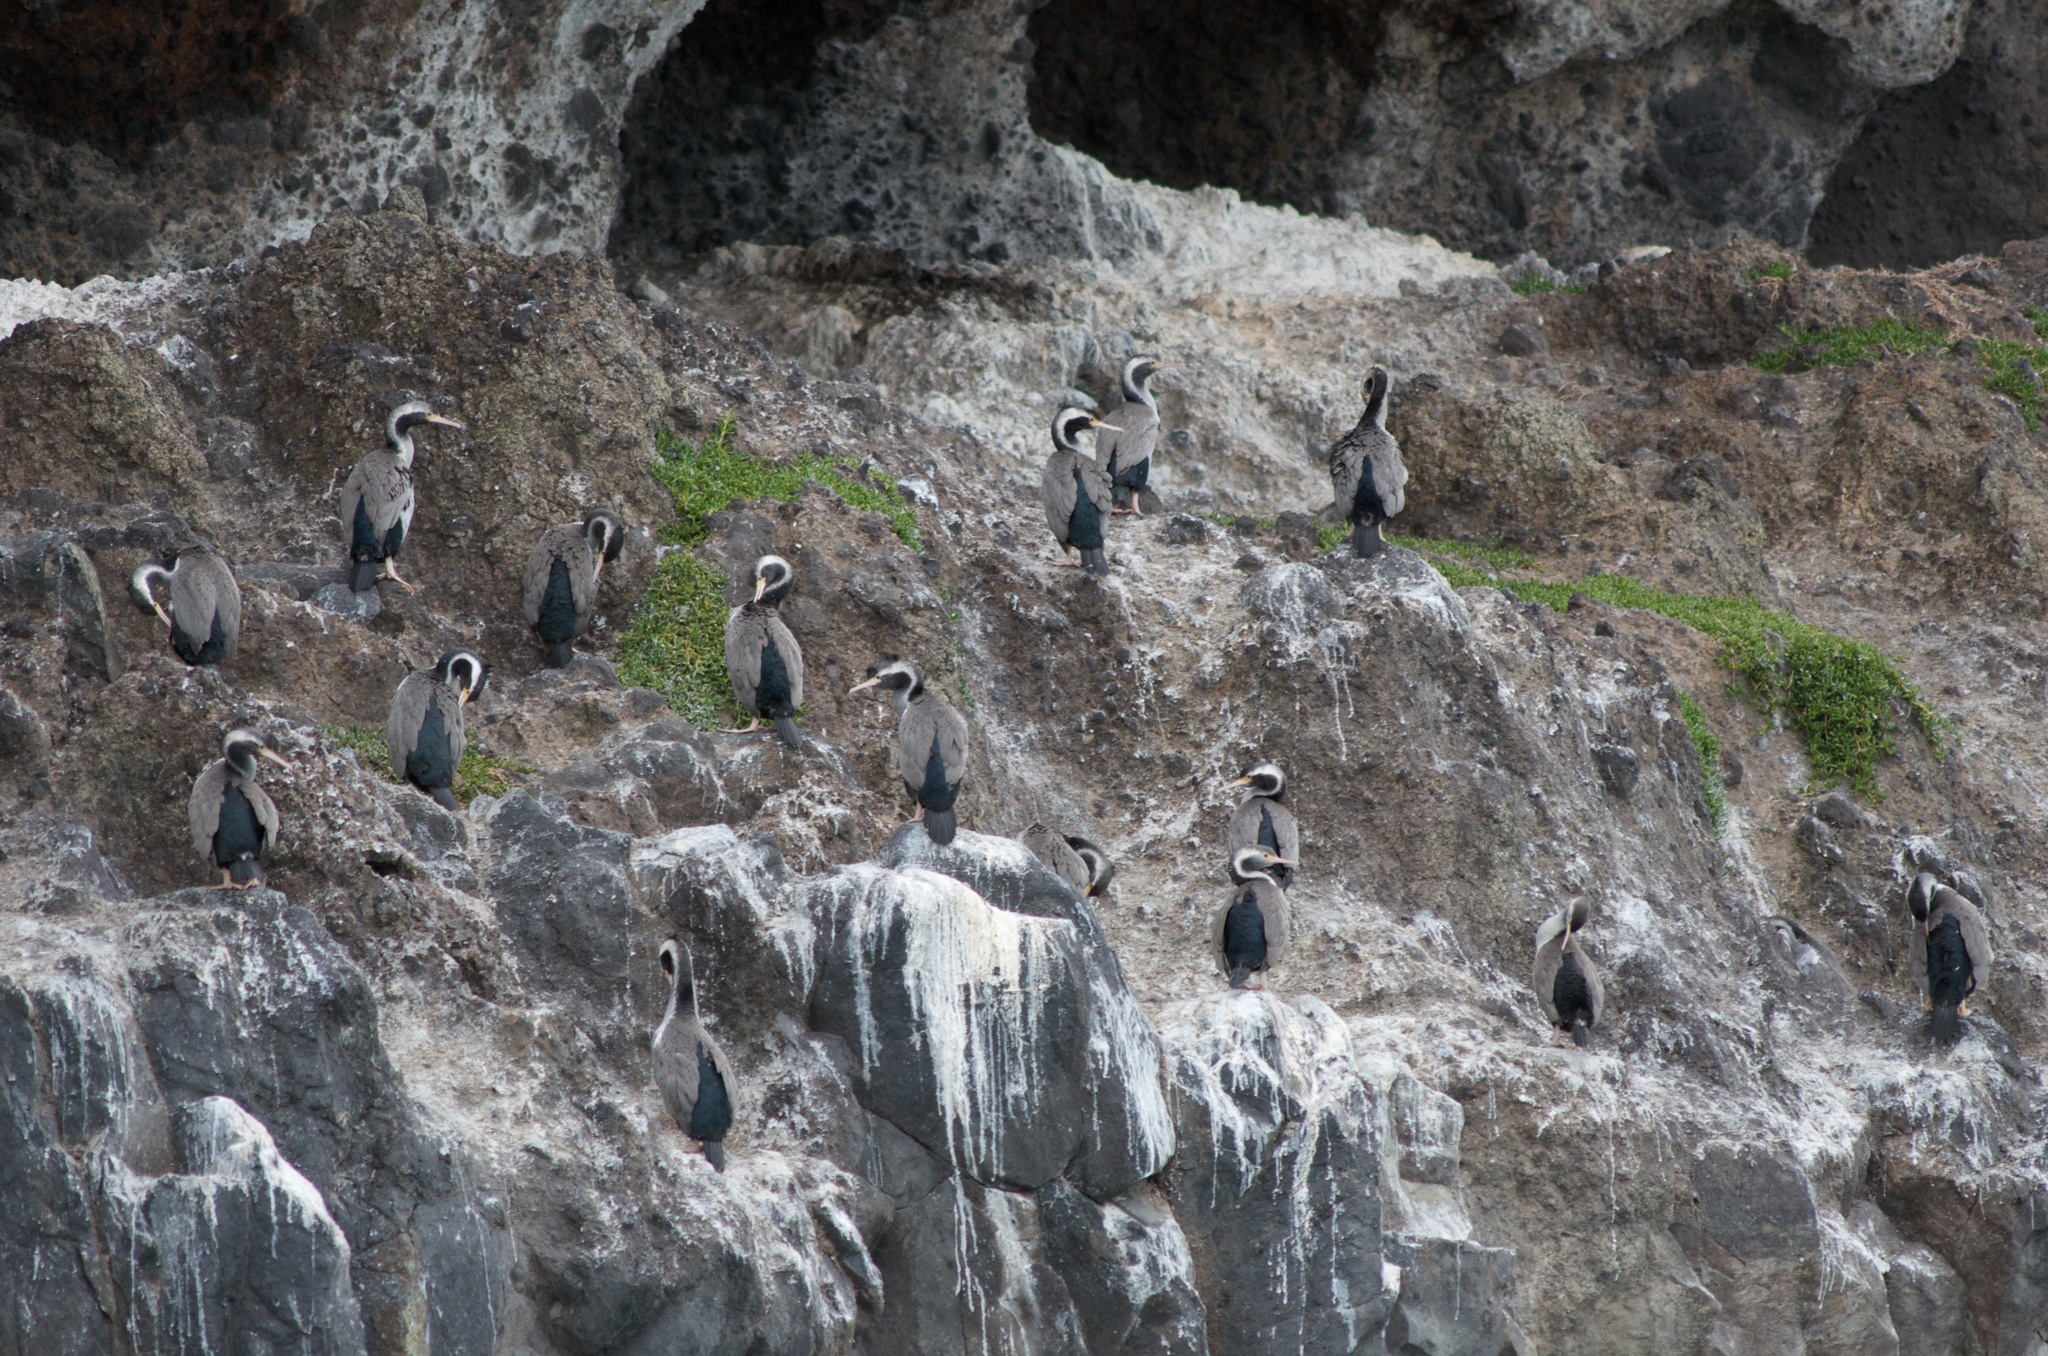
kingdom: Animalia
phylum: Chordata
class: Aves
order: Suliformes
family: Phalacrocoracidae
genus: Phalacrocorax
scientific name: Phalacrocorax punctatus
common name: Spotted shag
